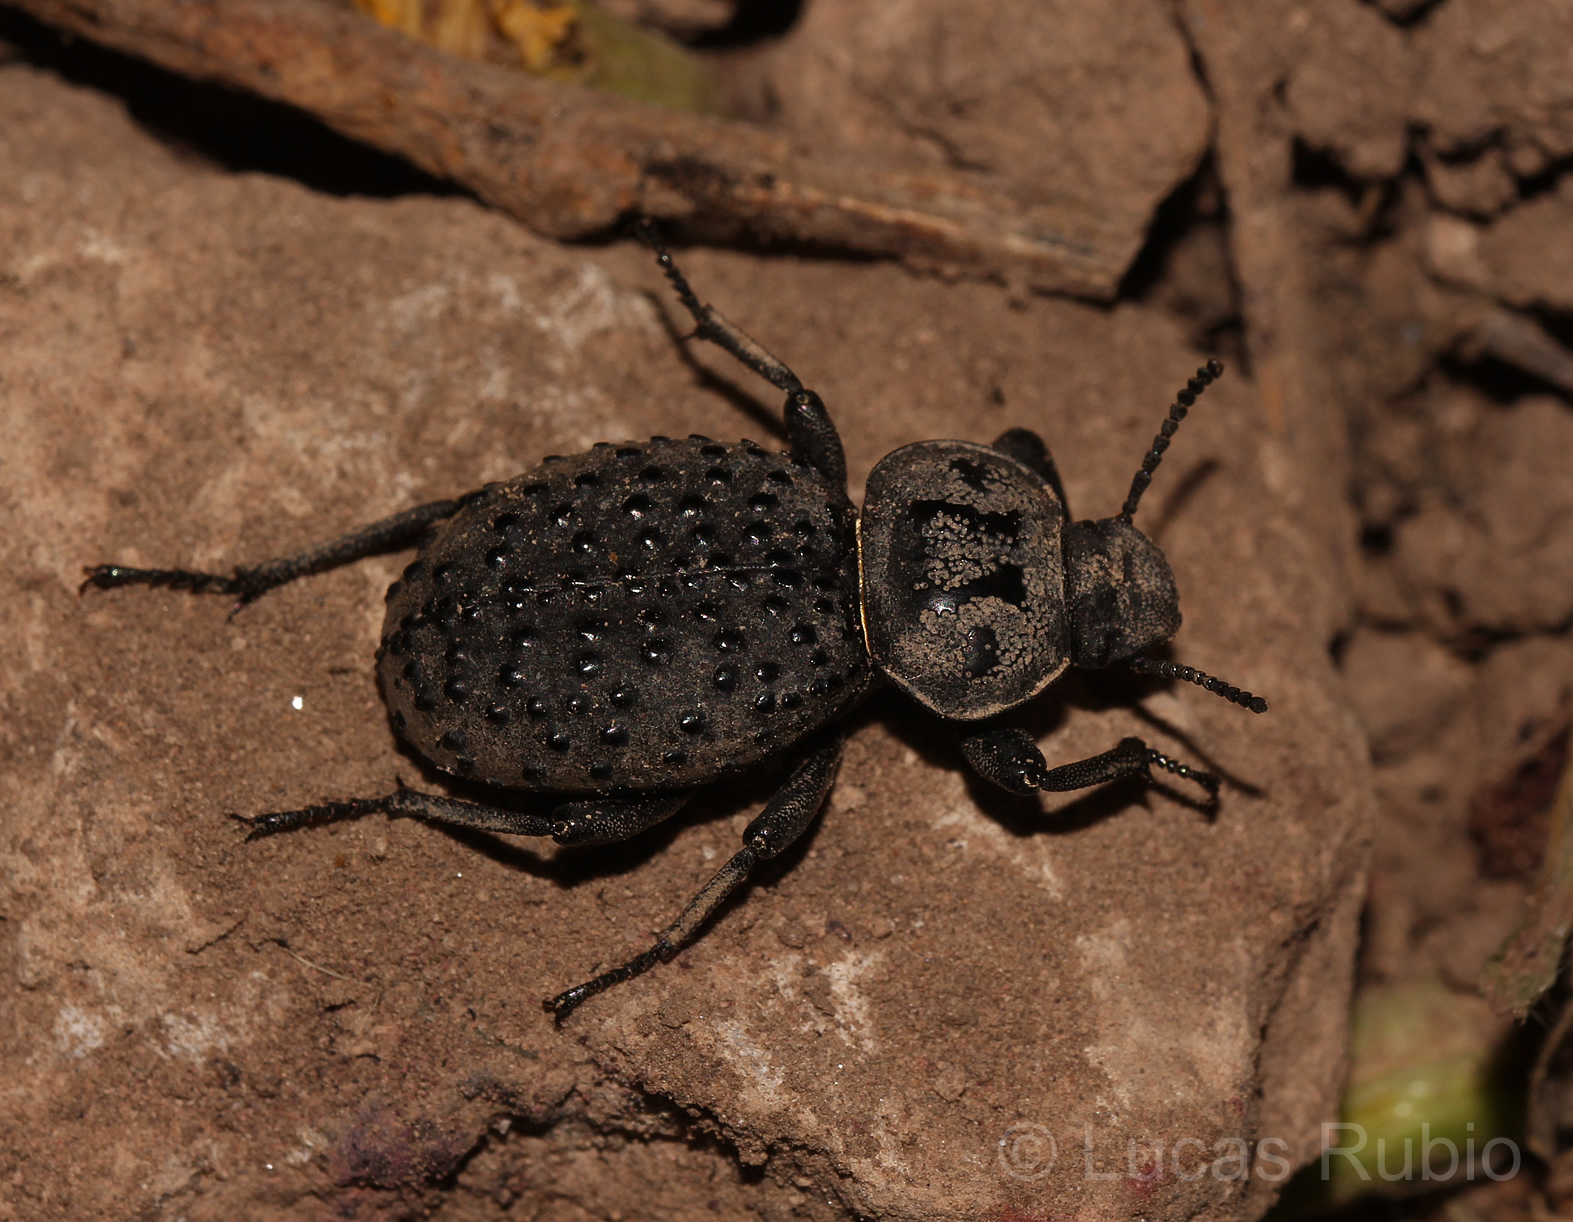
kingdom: Animalia
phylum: Arthropoda
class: Insecta
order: Coleoptera
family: Tenebrionidae
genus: Scotobius
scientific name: Scotobius pilularius
